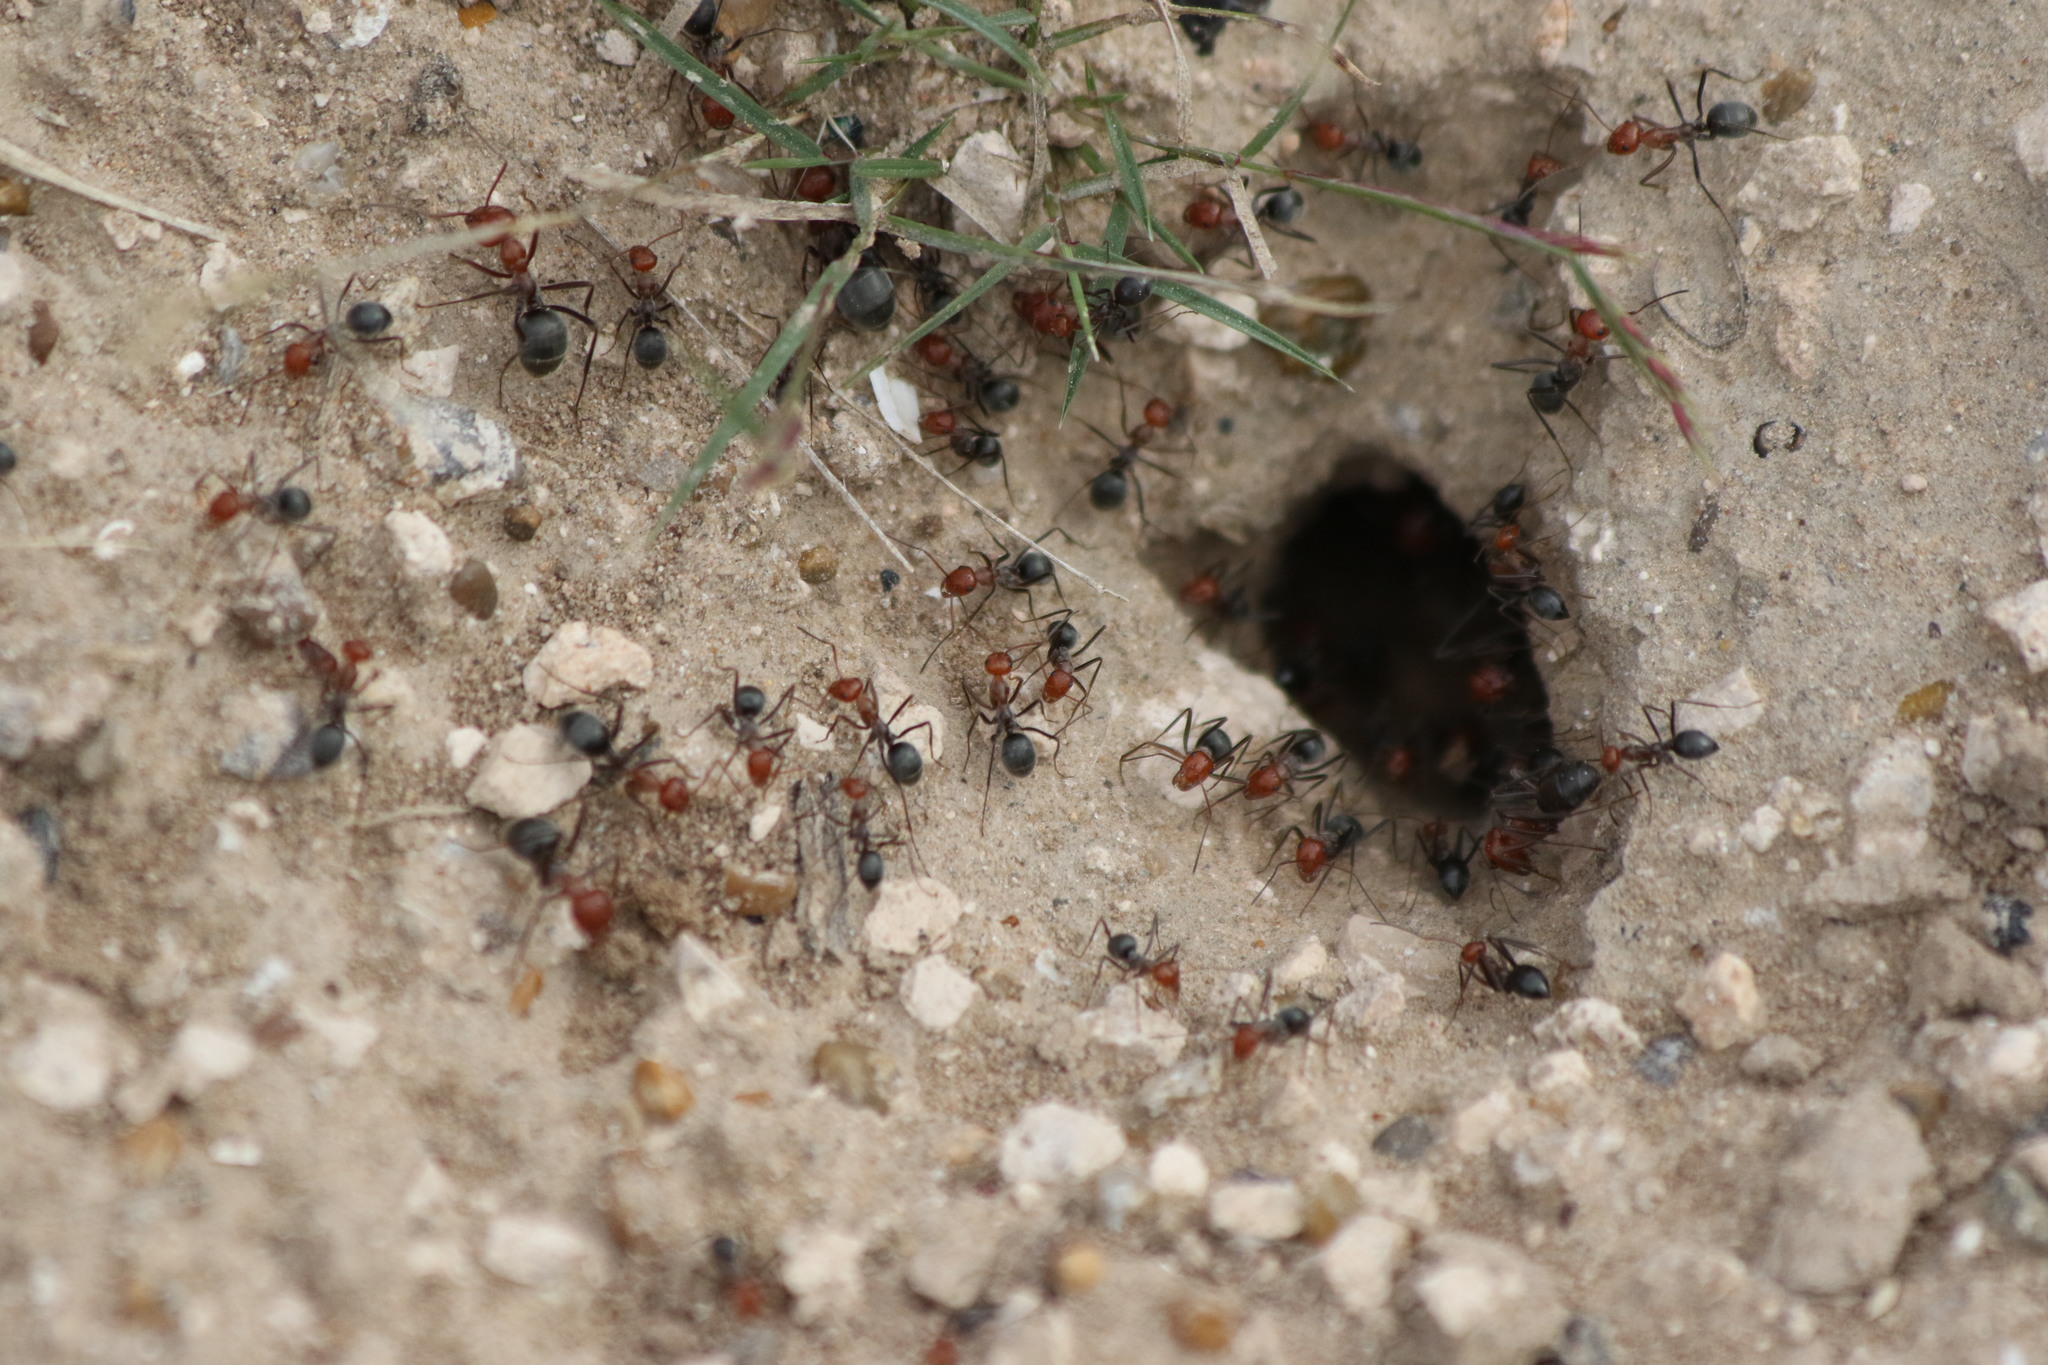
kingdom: Animalia
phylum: Arthropoda
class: Insecta
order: Hymenoptera
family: Formicidae
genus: Myrmecocystus
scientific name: Myrmecocystus placodops
